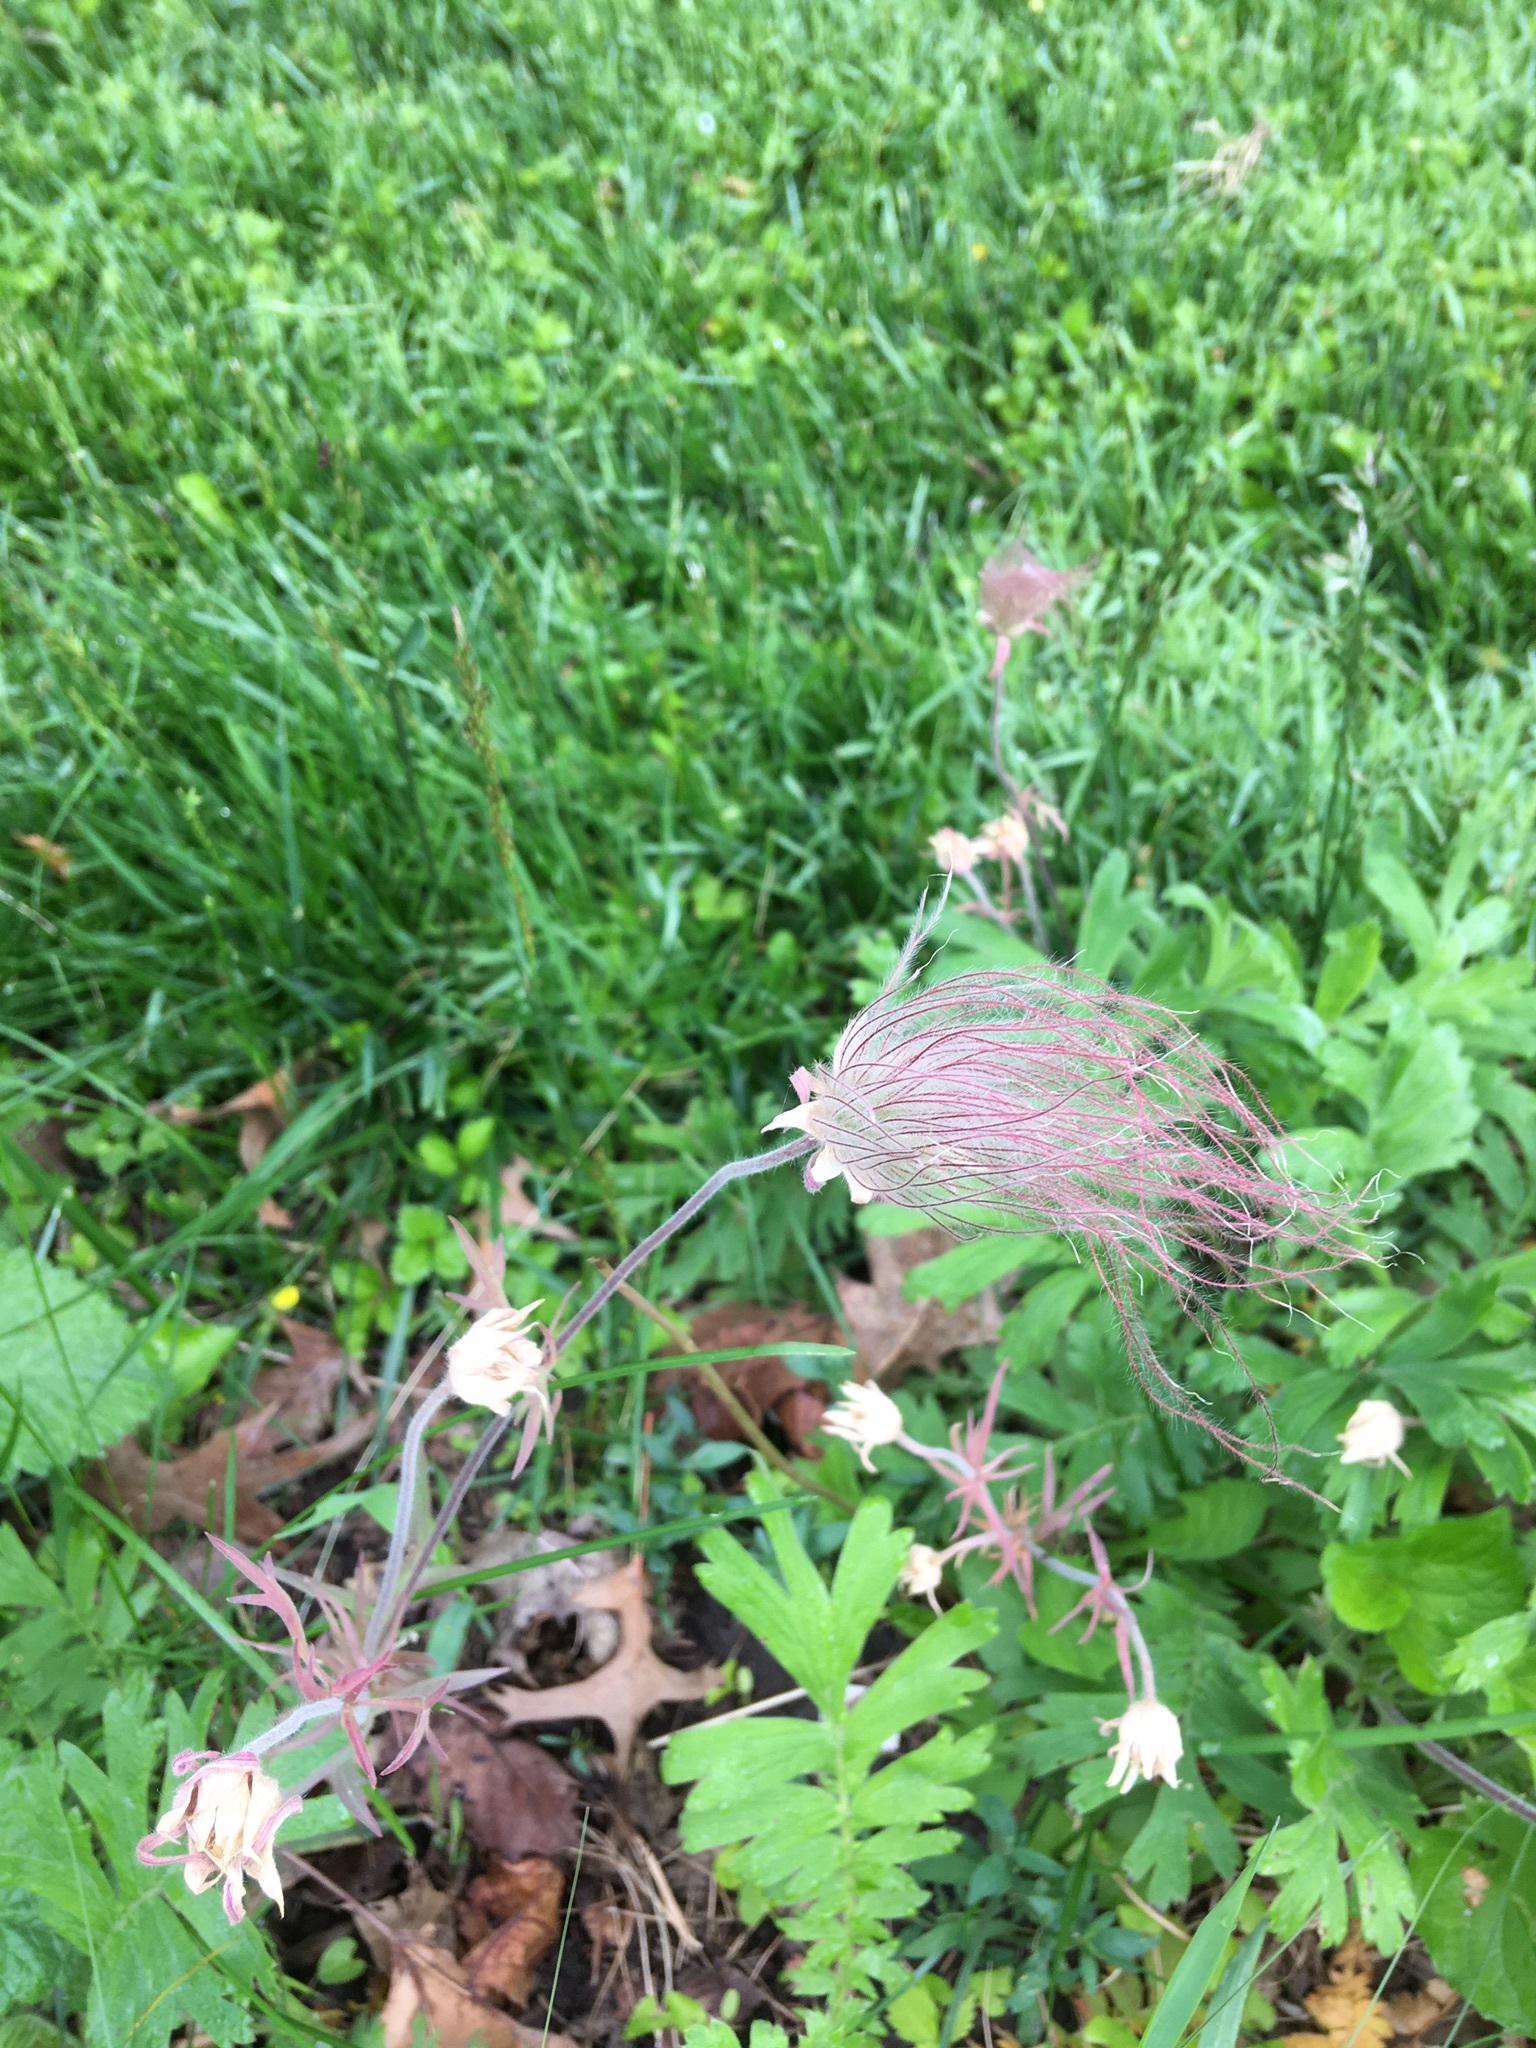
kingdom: Plantae
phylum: Tracheophyta
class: Magnoliopsida
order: Rosales
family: Rosaceae
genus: Geum
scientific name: Geum triflorum
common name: Old man's whiskers
